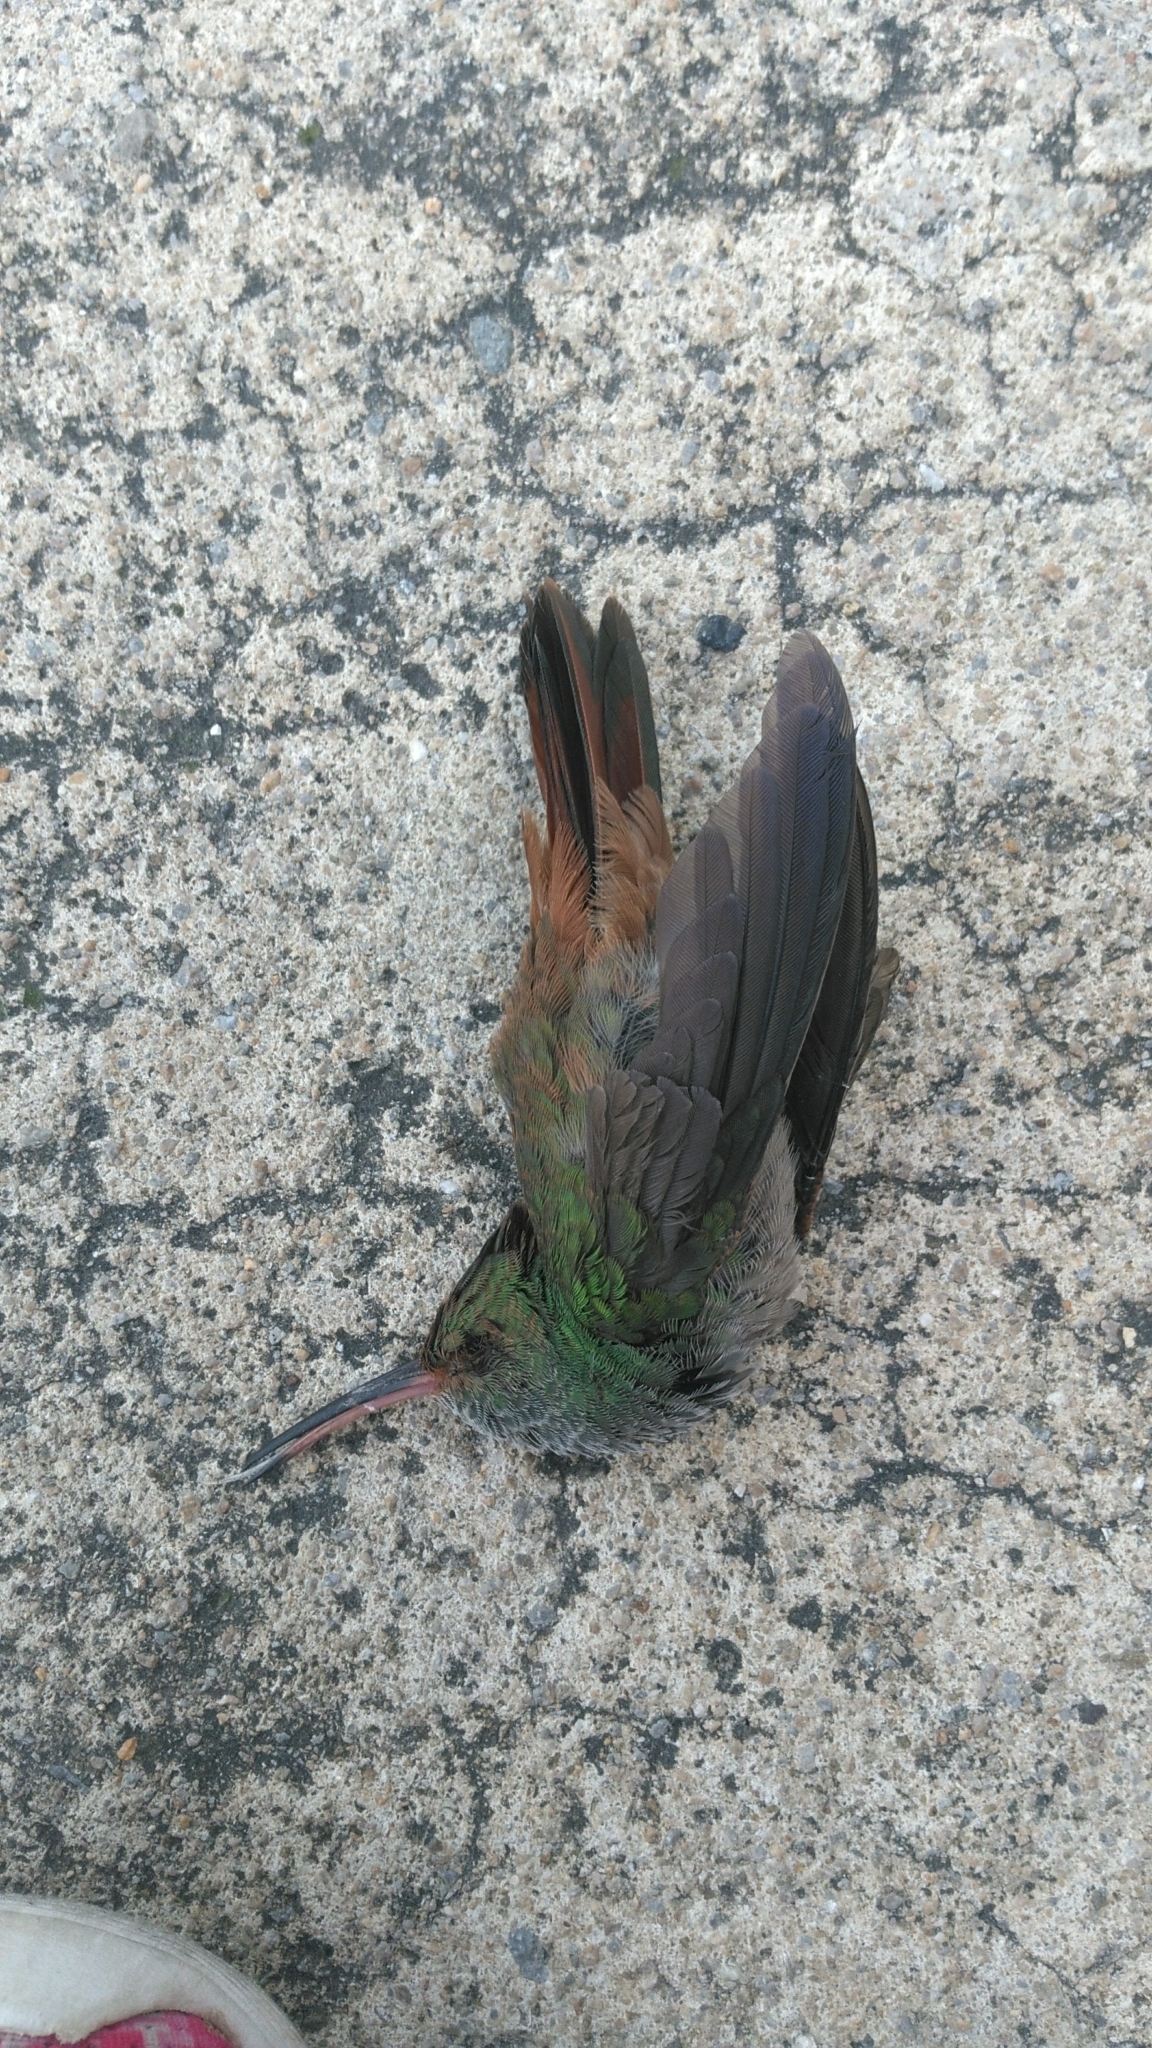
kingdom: Animalia
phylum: Chordata
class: Aves
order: Apodiformes
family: Trochilidae
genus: Amazilia
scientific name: Amazilia tzacatl
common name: Rufous-tailed hummingbird
